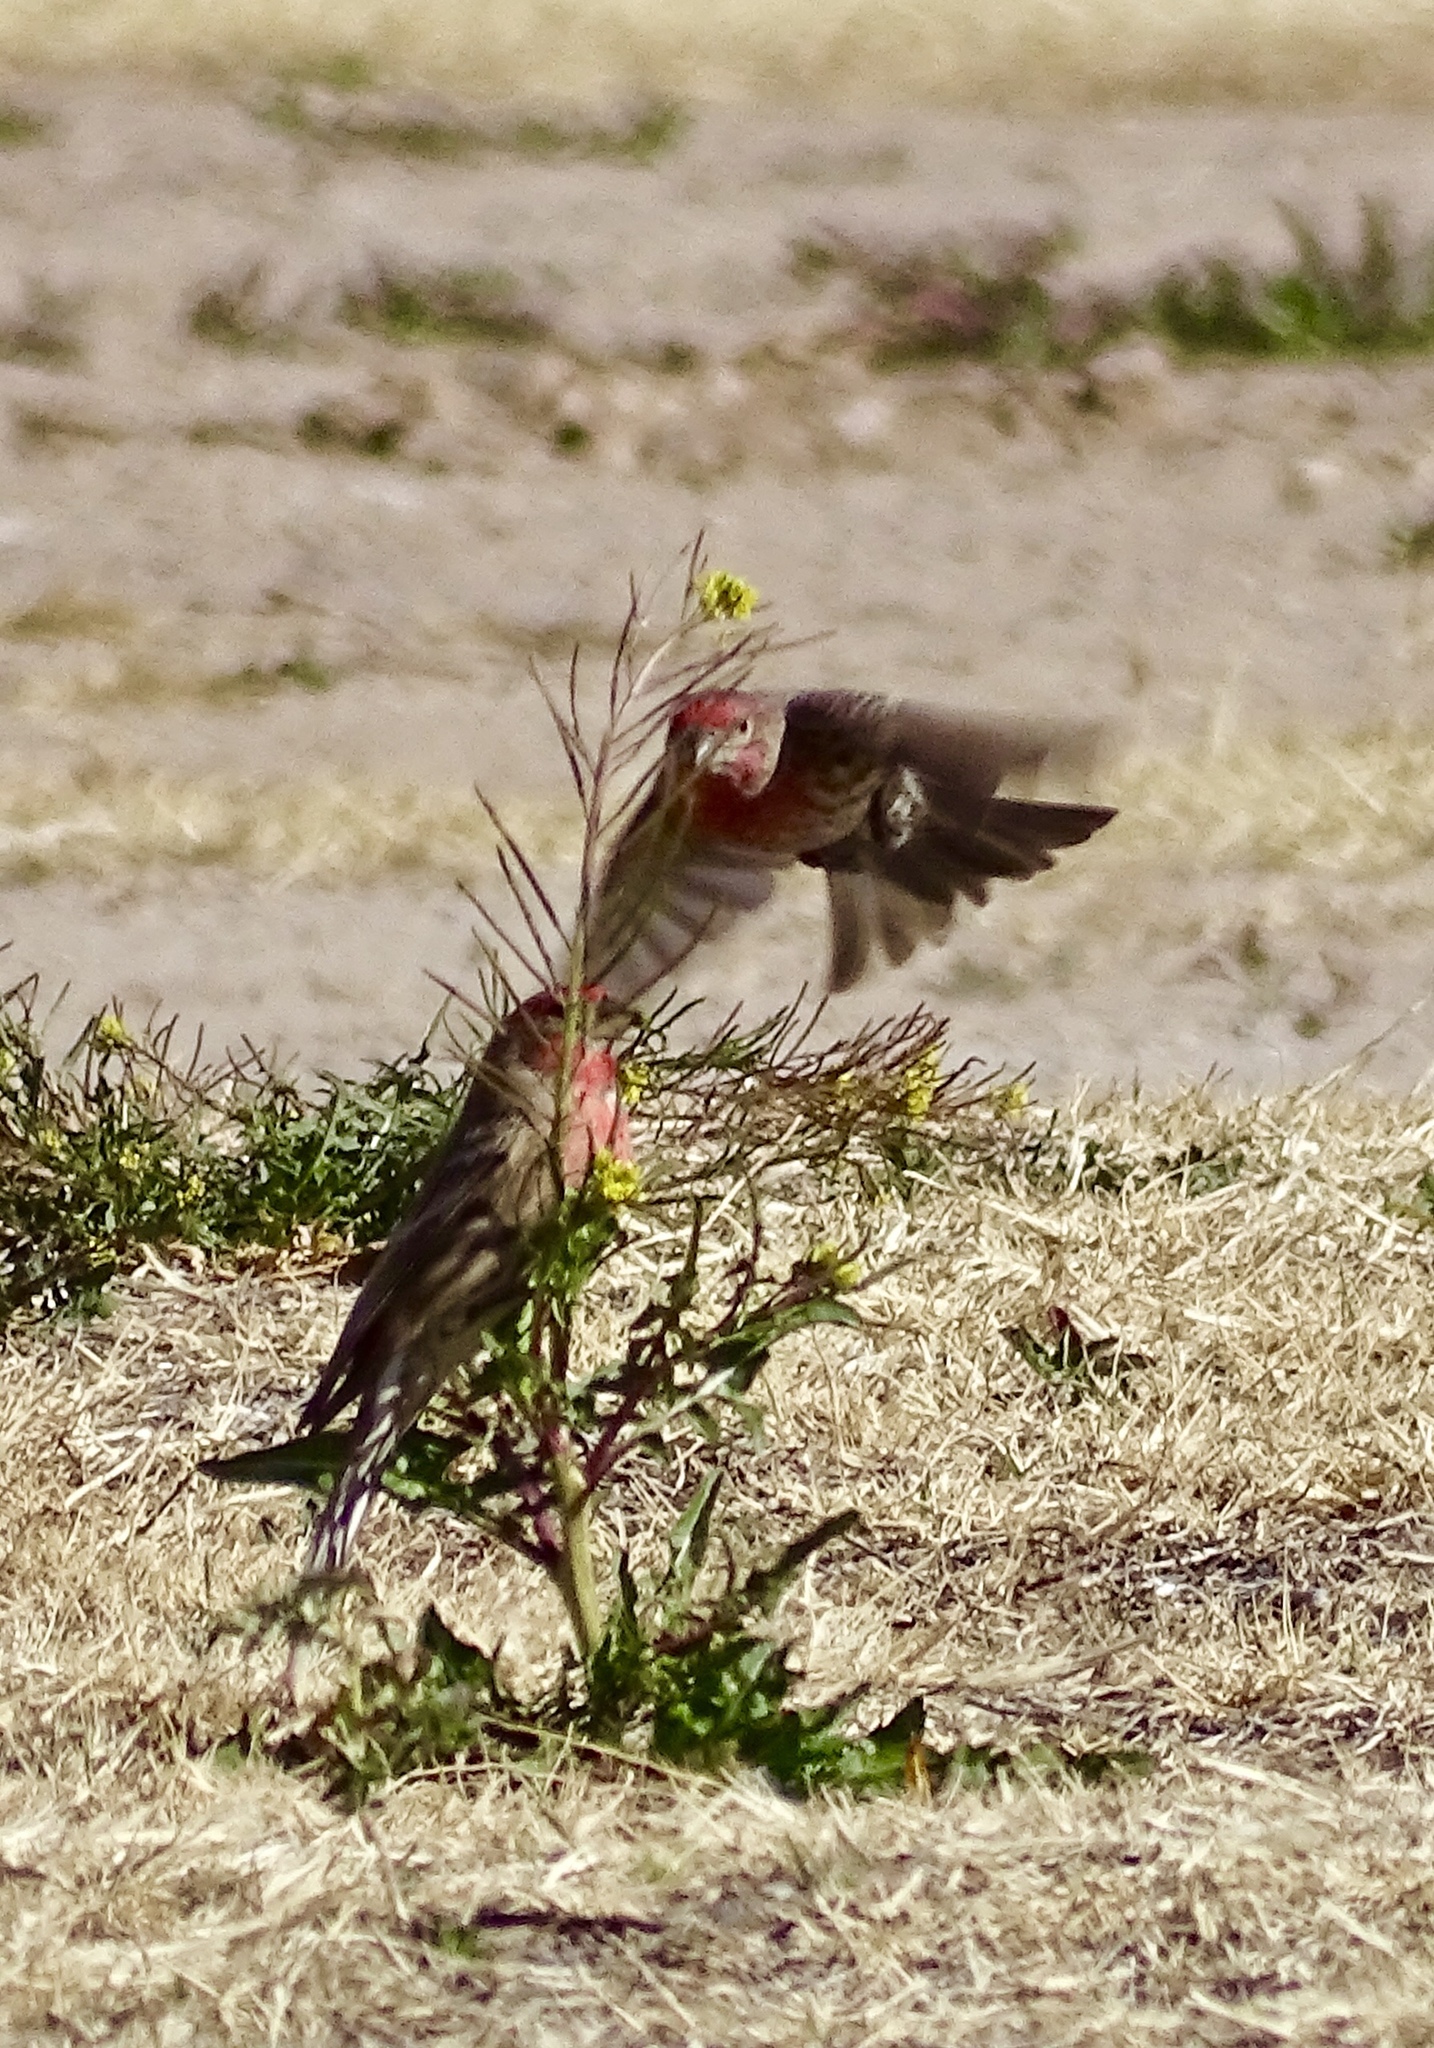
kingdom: Animalia
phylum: Chordata
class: Aves
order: Passeriformes
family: Fringillidae
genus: Haemorhous
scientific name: Haemorhous mexicanus
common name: House finch
